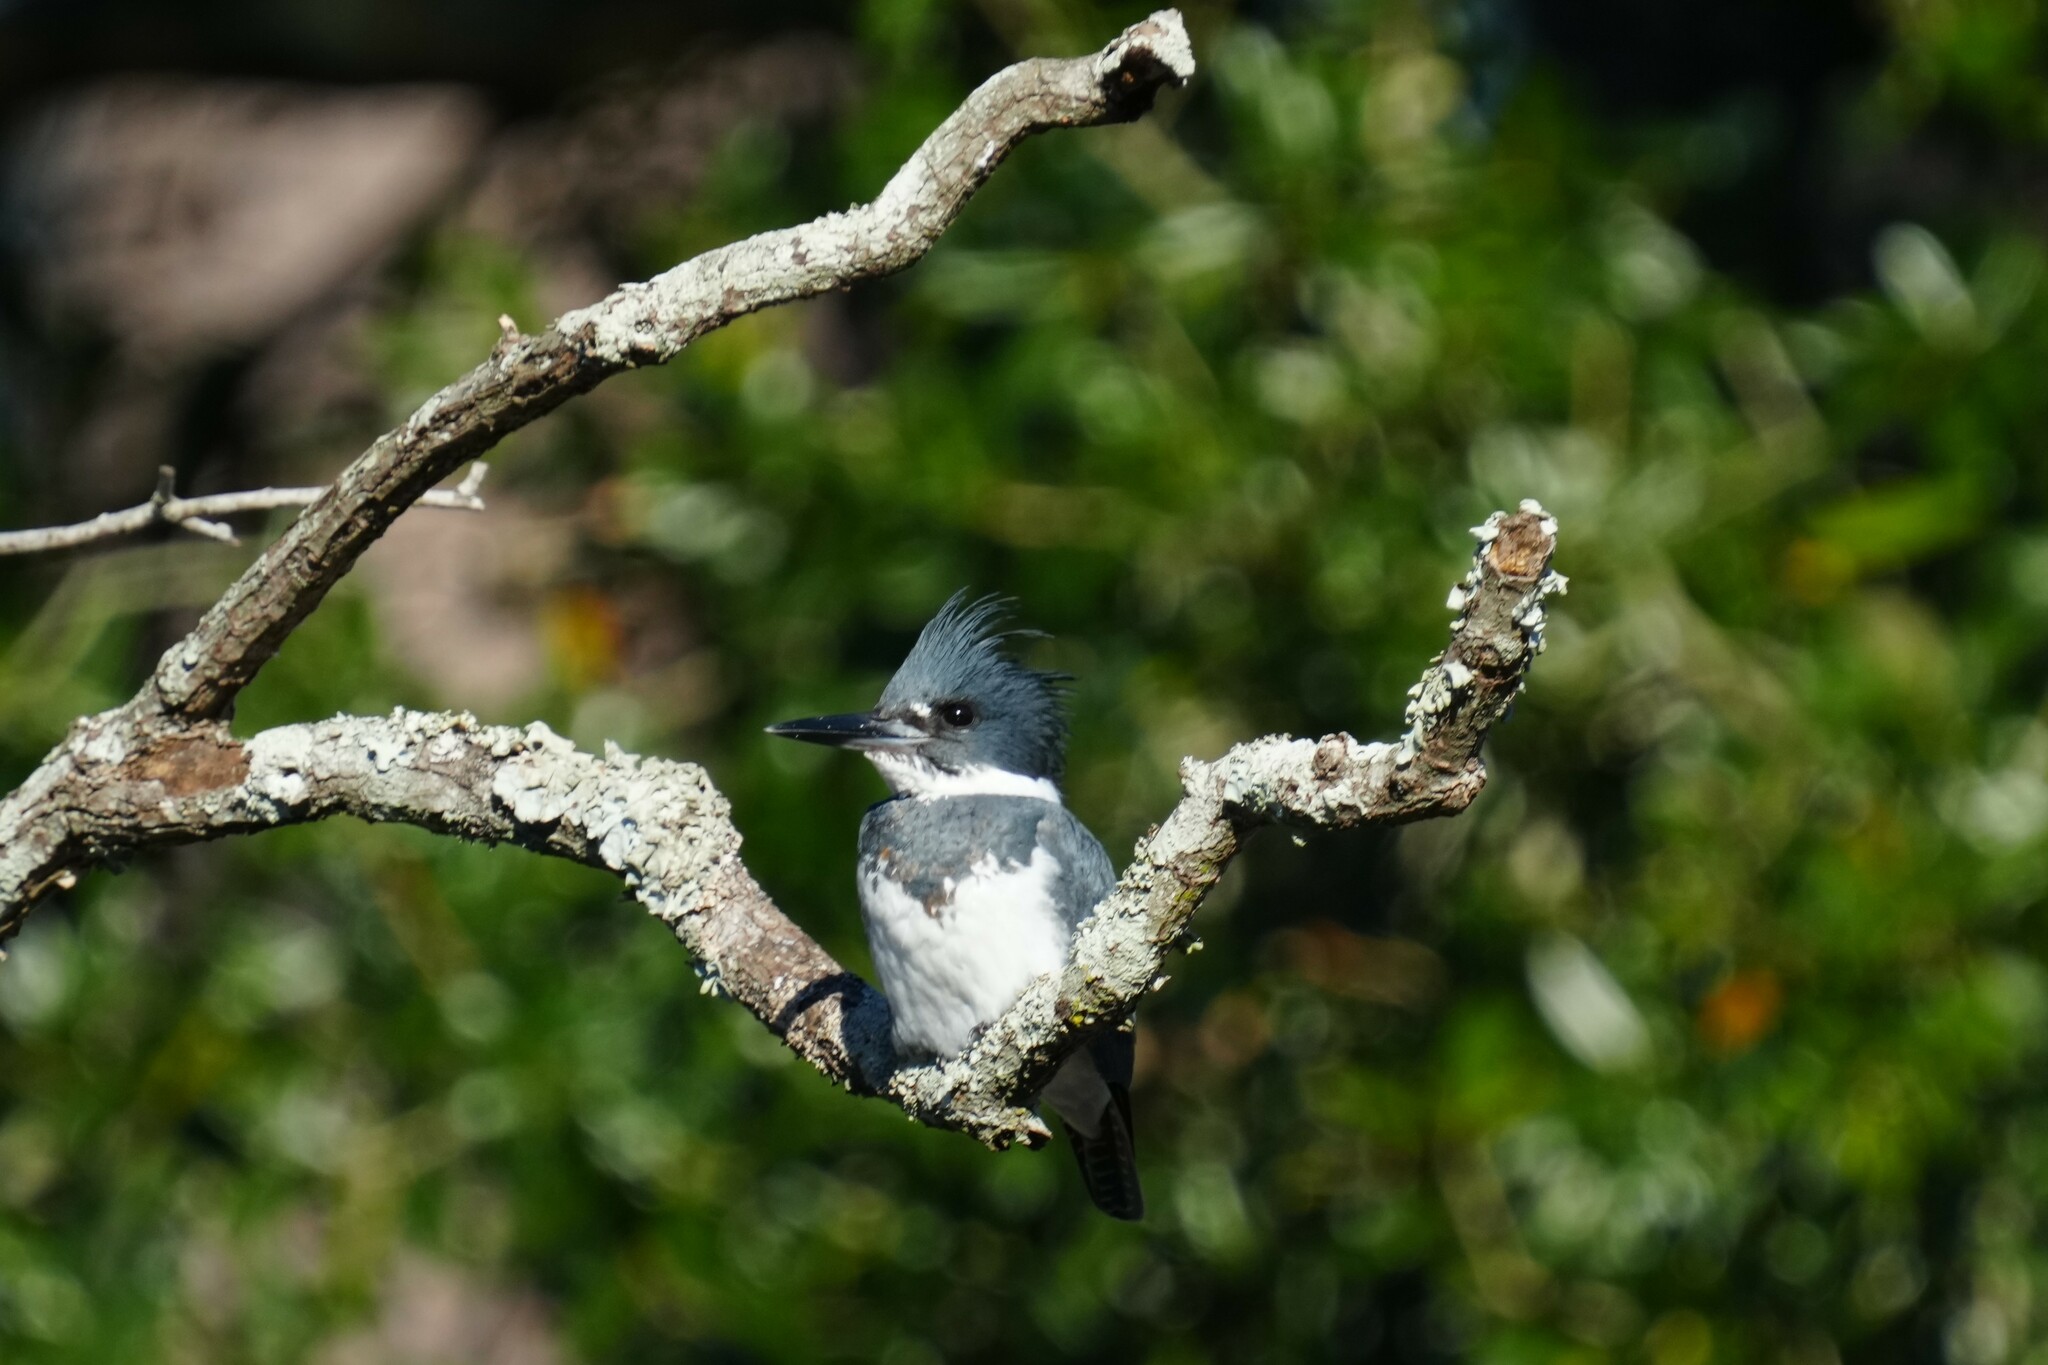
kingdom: Animalia
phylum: Chordata
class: Aves
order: Coraciiformes
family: Alcedinidae
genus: Megaceryle
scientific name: Megaceryle alcyon
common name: Belted kingfisher
